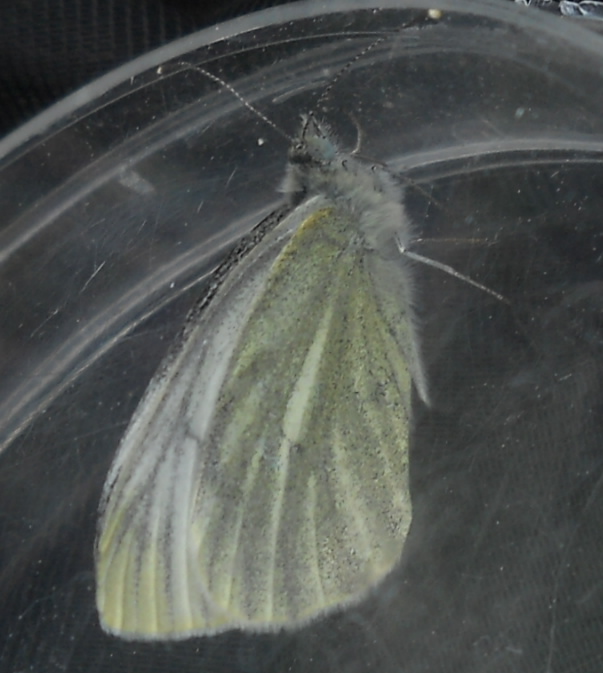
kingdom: Animalia
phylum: Arthropoda
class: Insecta
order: Lepidoptera
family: Pieridae
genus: Pieris
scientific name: Pieris napi
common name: Green-veined white
